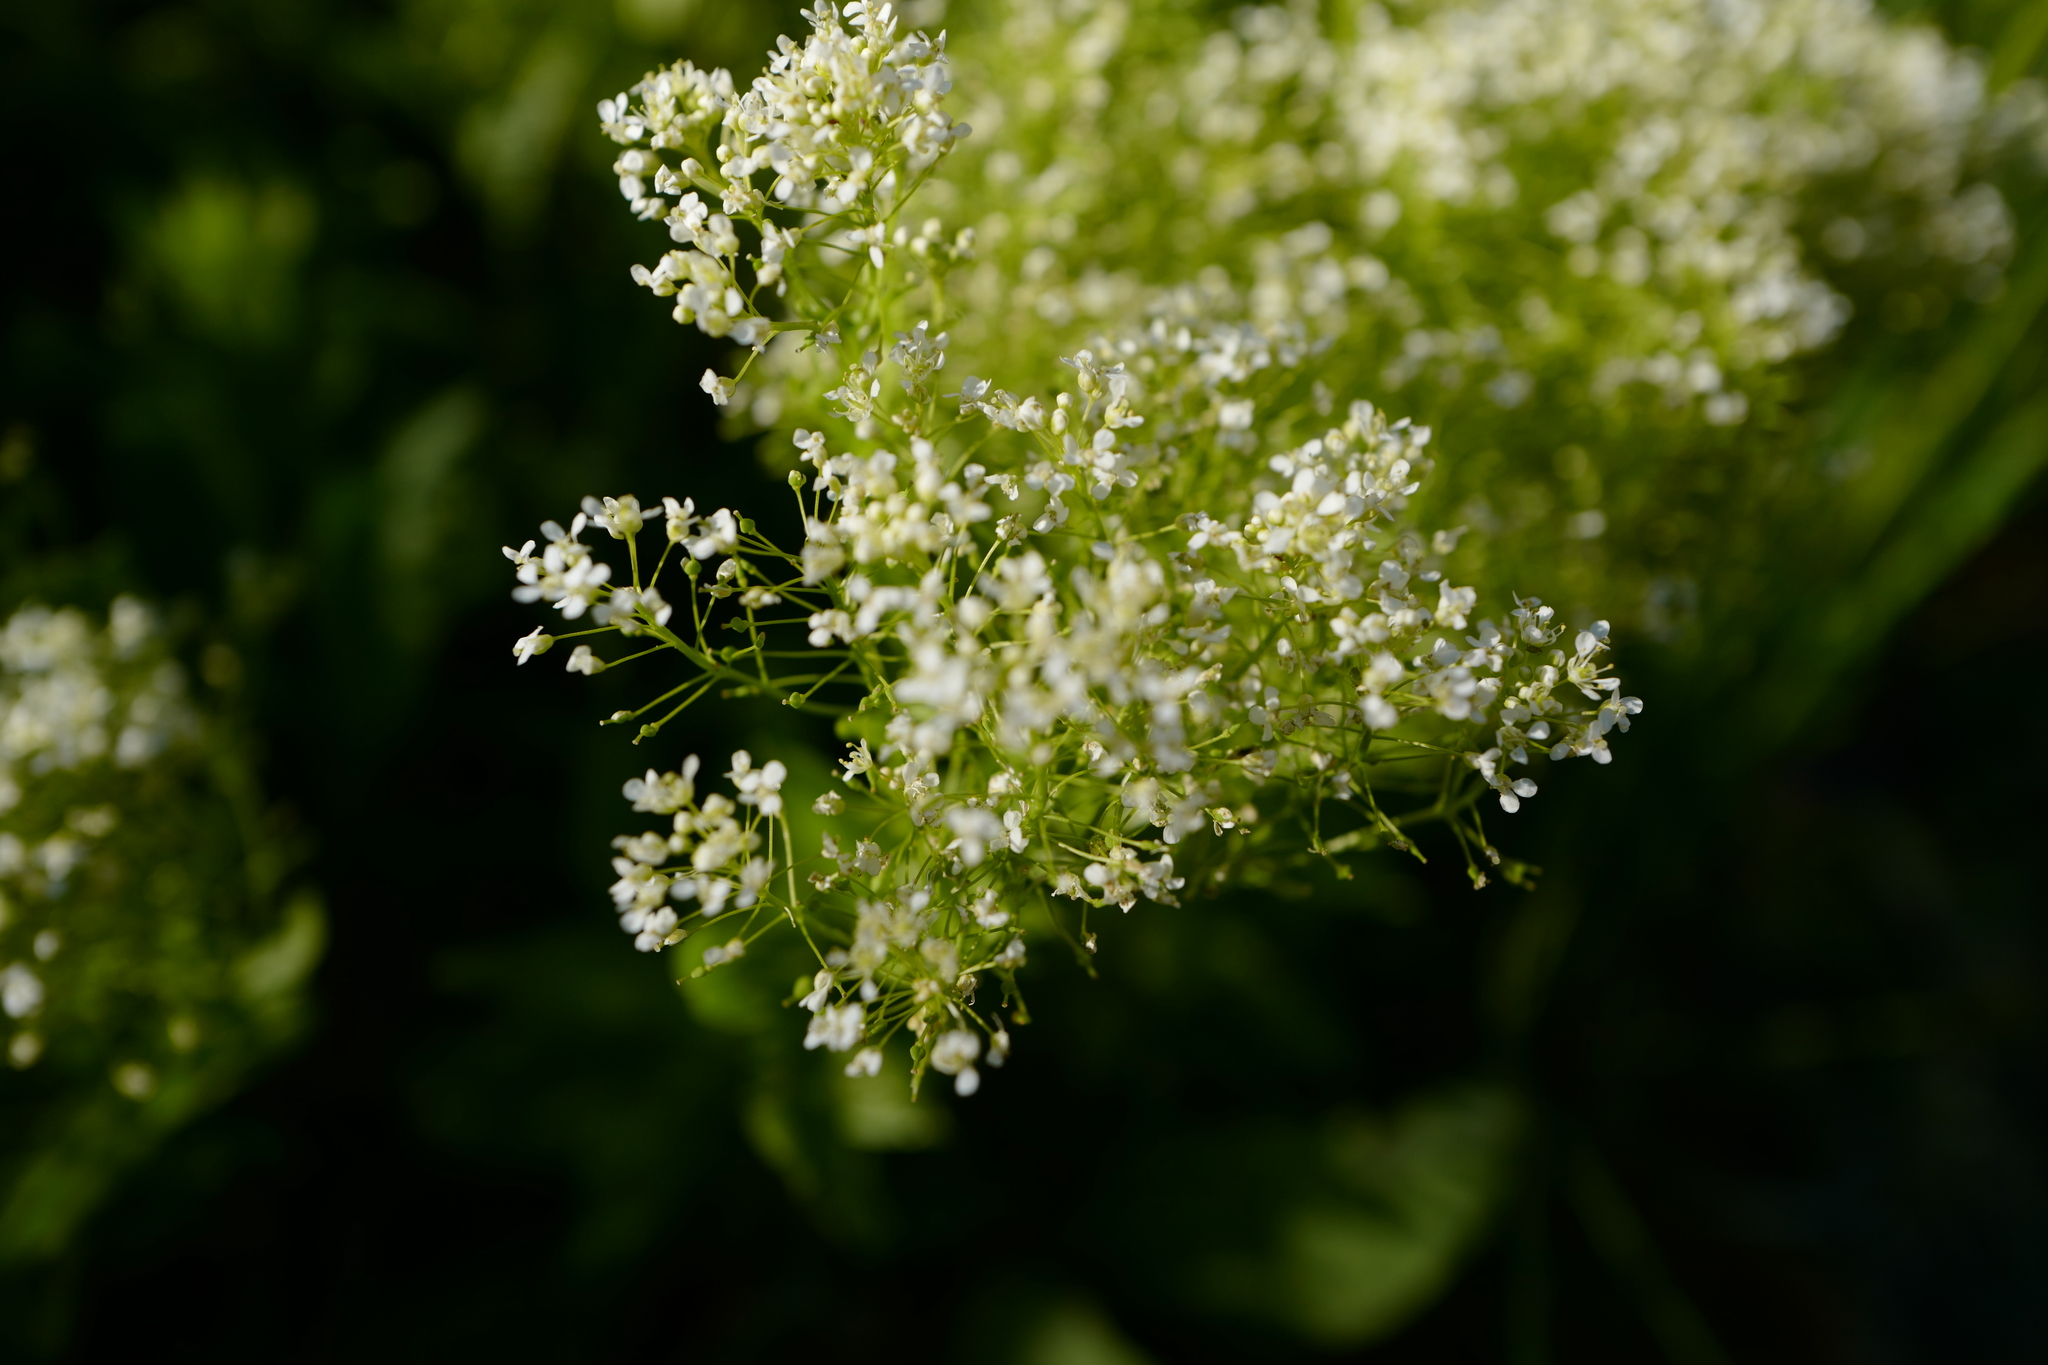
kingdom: Plantae
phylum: Tracheophyta
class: Magnoliopsida
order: Brassicales
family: Brassicaceae
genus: Lepidium
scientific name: Lepidium draba
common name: Hoary cress
